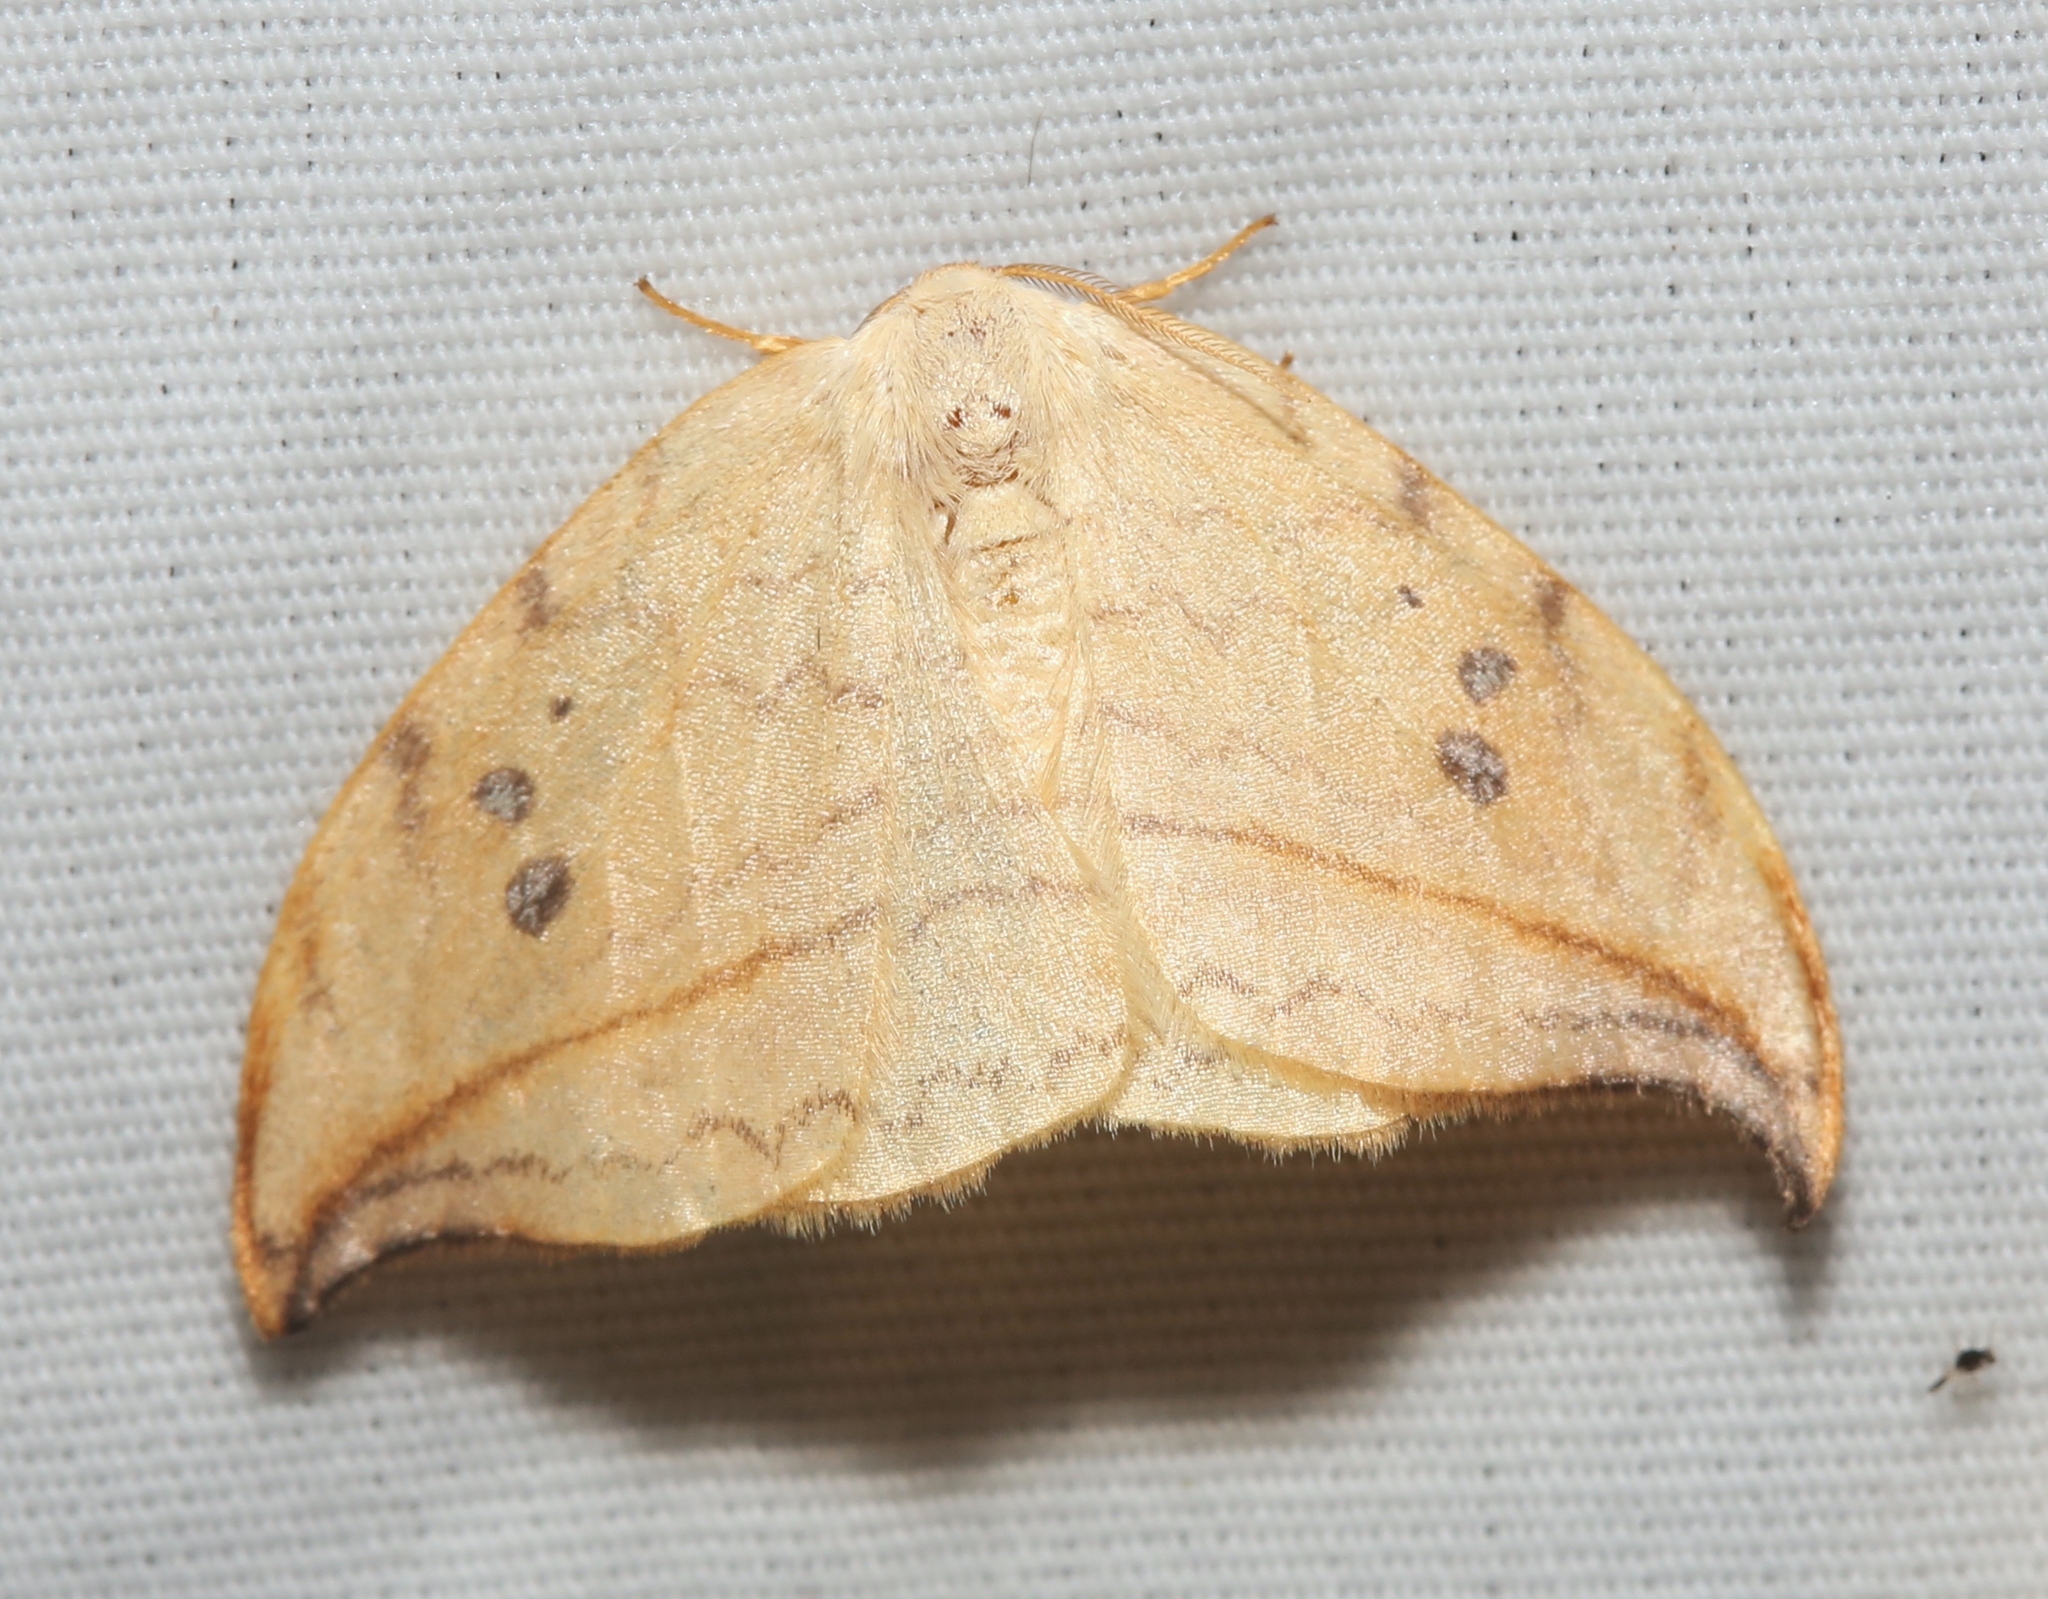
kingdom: Animalia
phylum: Arthropoda
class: Insecta
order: Lepidoptera
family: Drepanidae
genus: Drepana
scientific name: Drepana arcuata
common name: Arched hooktip moth
